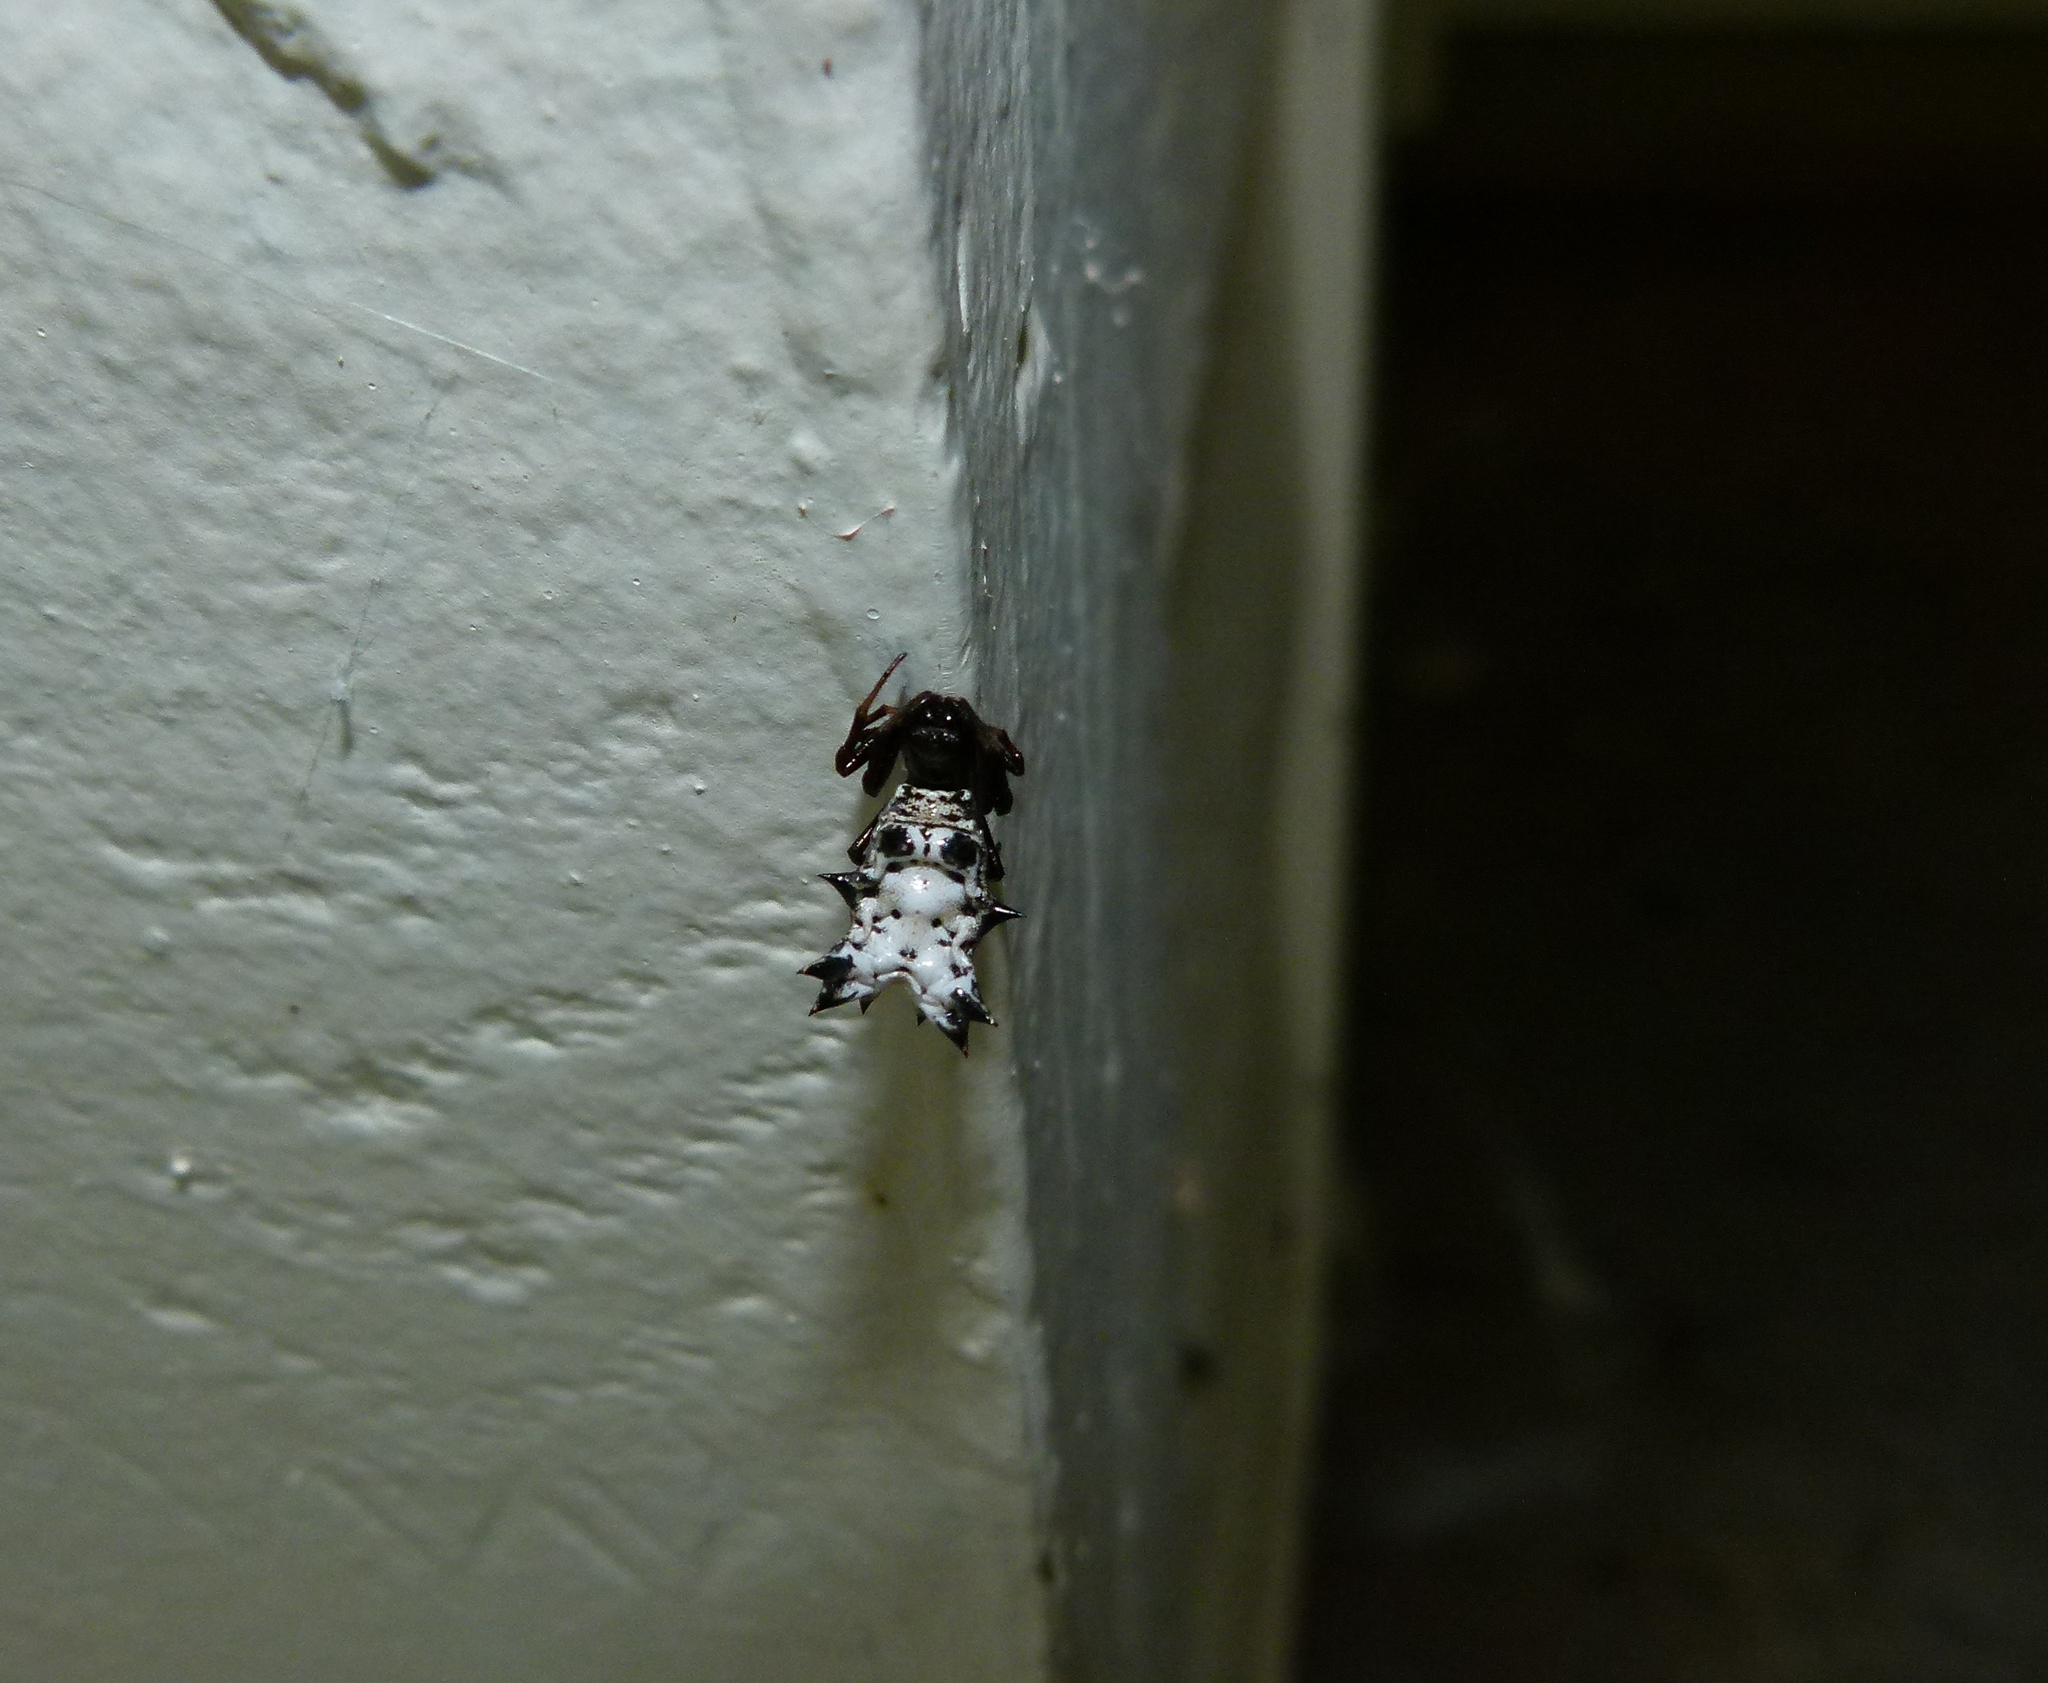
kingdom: Animalia
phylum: Arthropoda
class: Arachnida
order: Araneae
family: Araneidae
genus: Micrathena
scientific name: Micrathena gracilis
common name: Orb weavers
